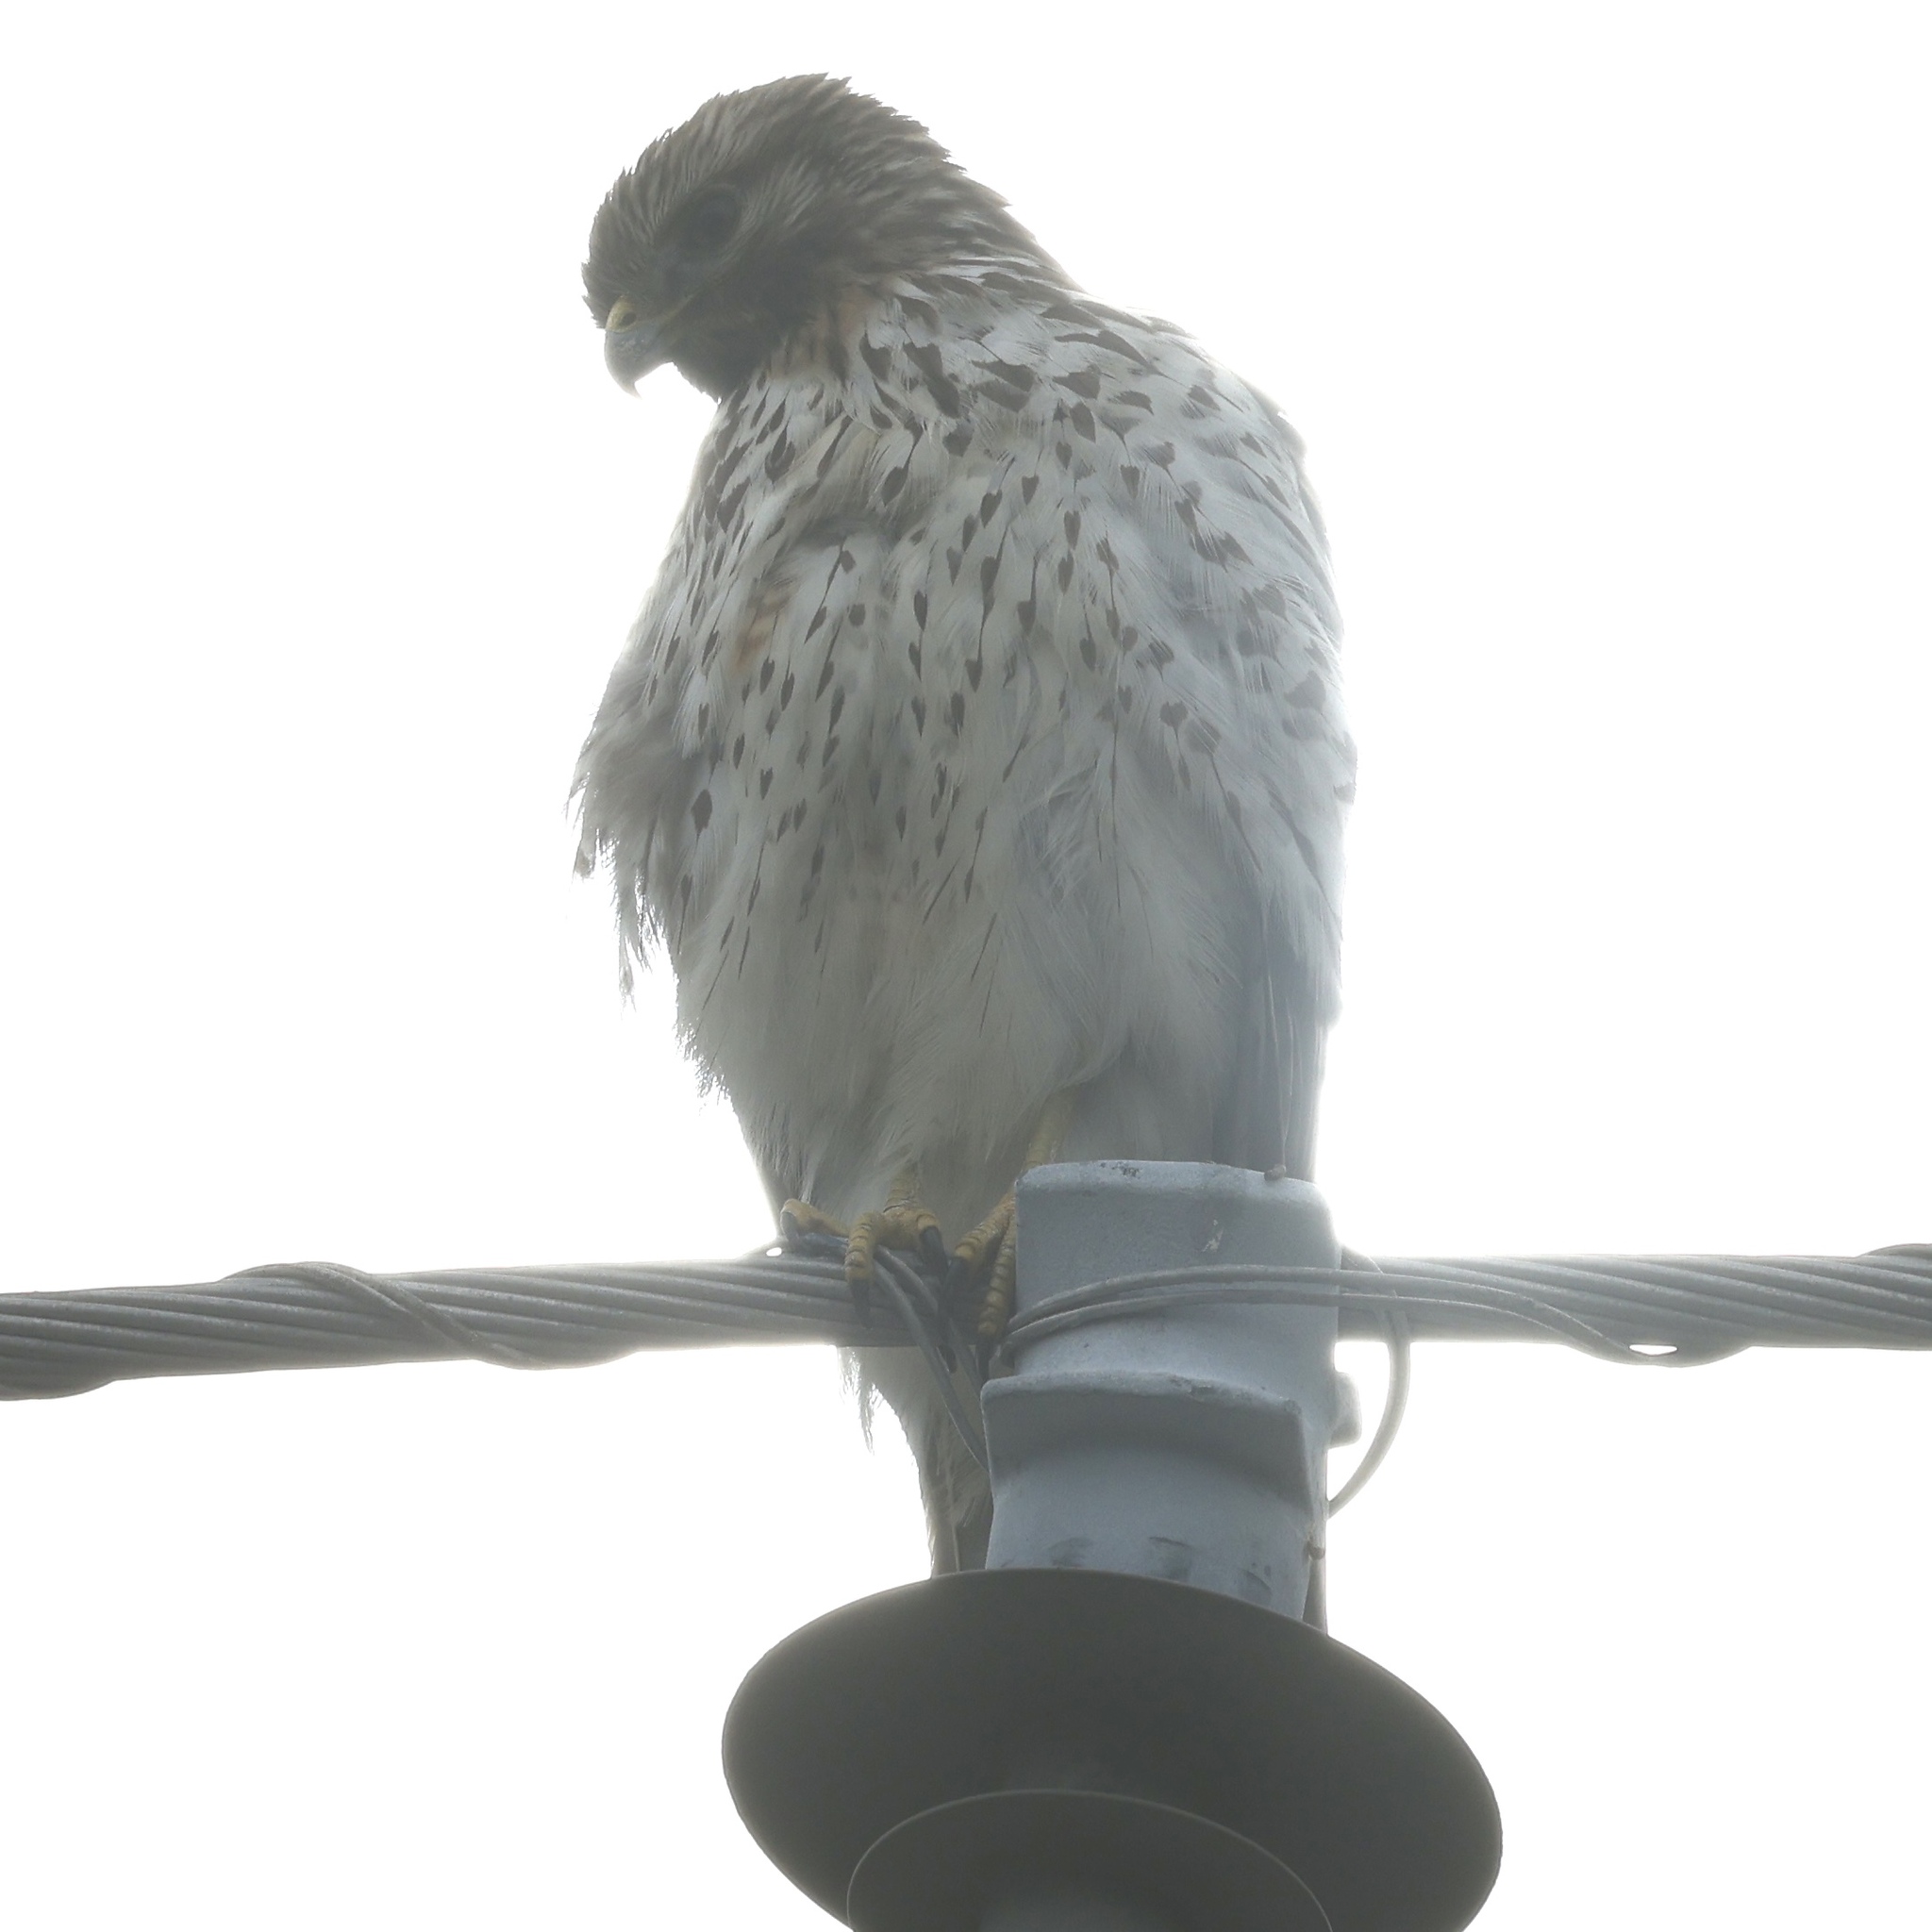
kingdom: Animalia
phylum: Chordata
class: Aves
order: Accipitriformes
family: Accipitridae
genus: Buteo
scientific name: Buteo lineatus
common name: Red-shouldered hawk
